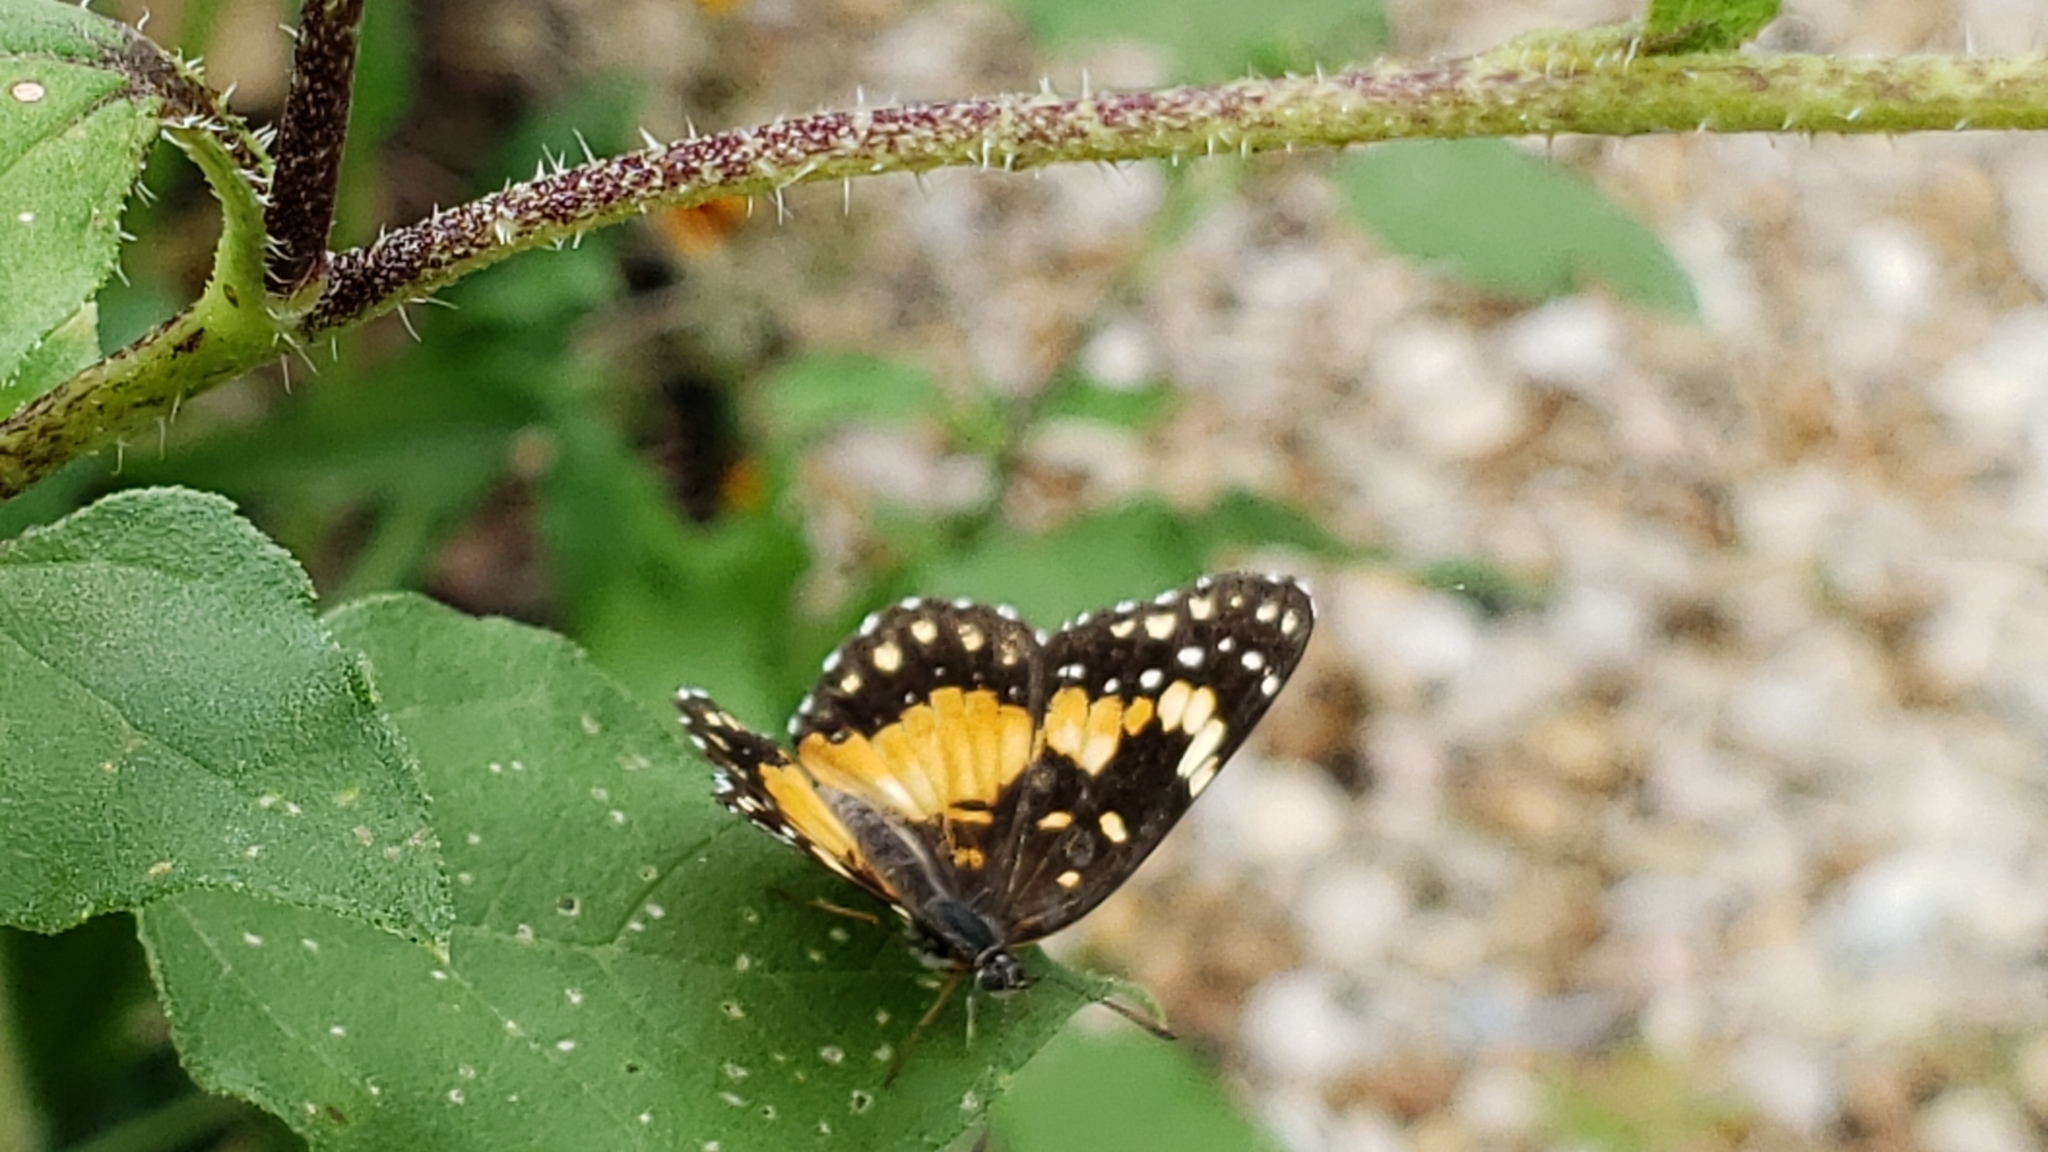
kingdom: Animalia
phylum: Arthropoda
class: Insecta
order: Lepidoptera
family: Nymphalidae
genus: Chlosyne
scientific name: Chlosyne lacinia
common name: Bordered patch
